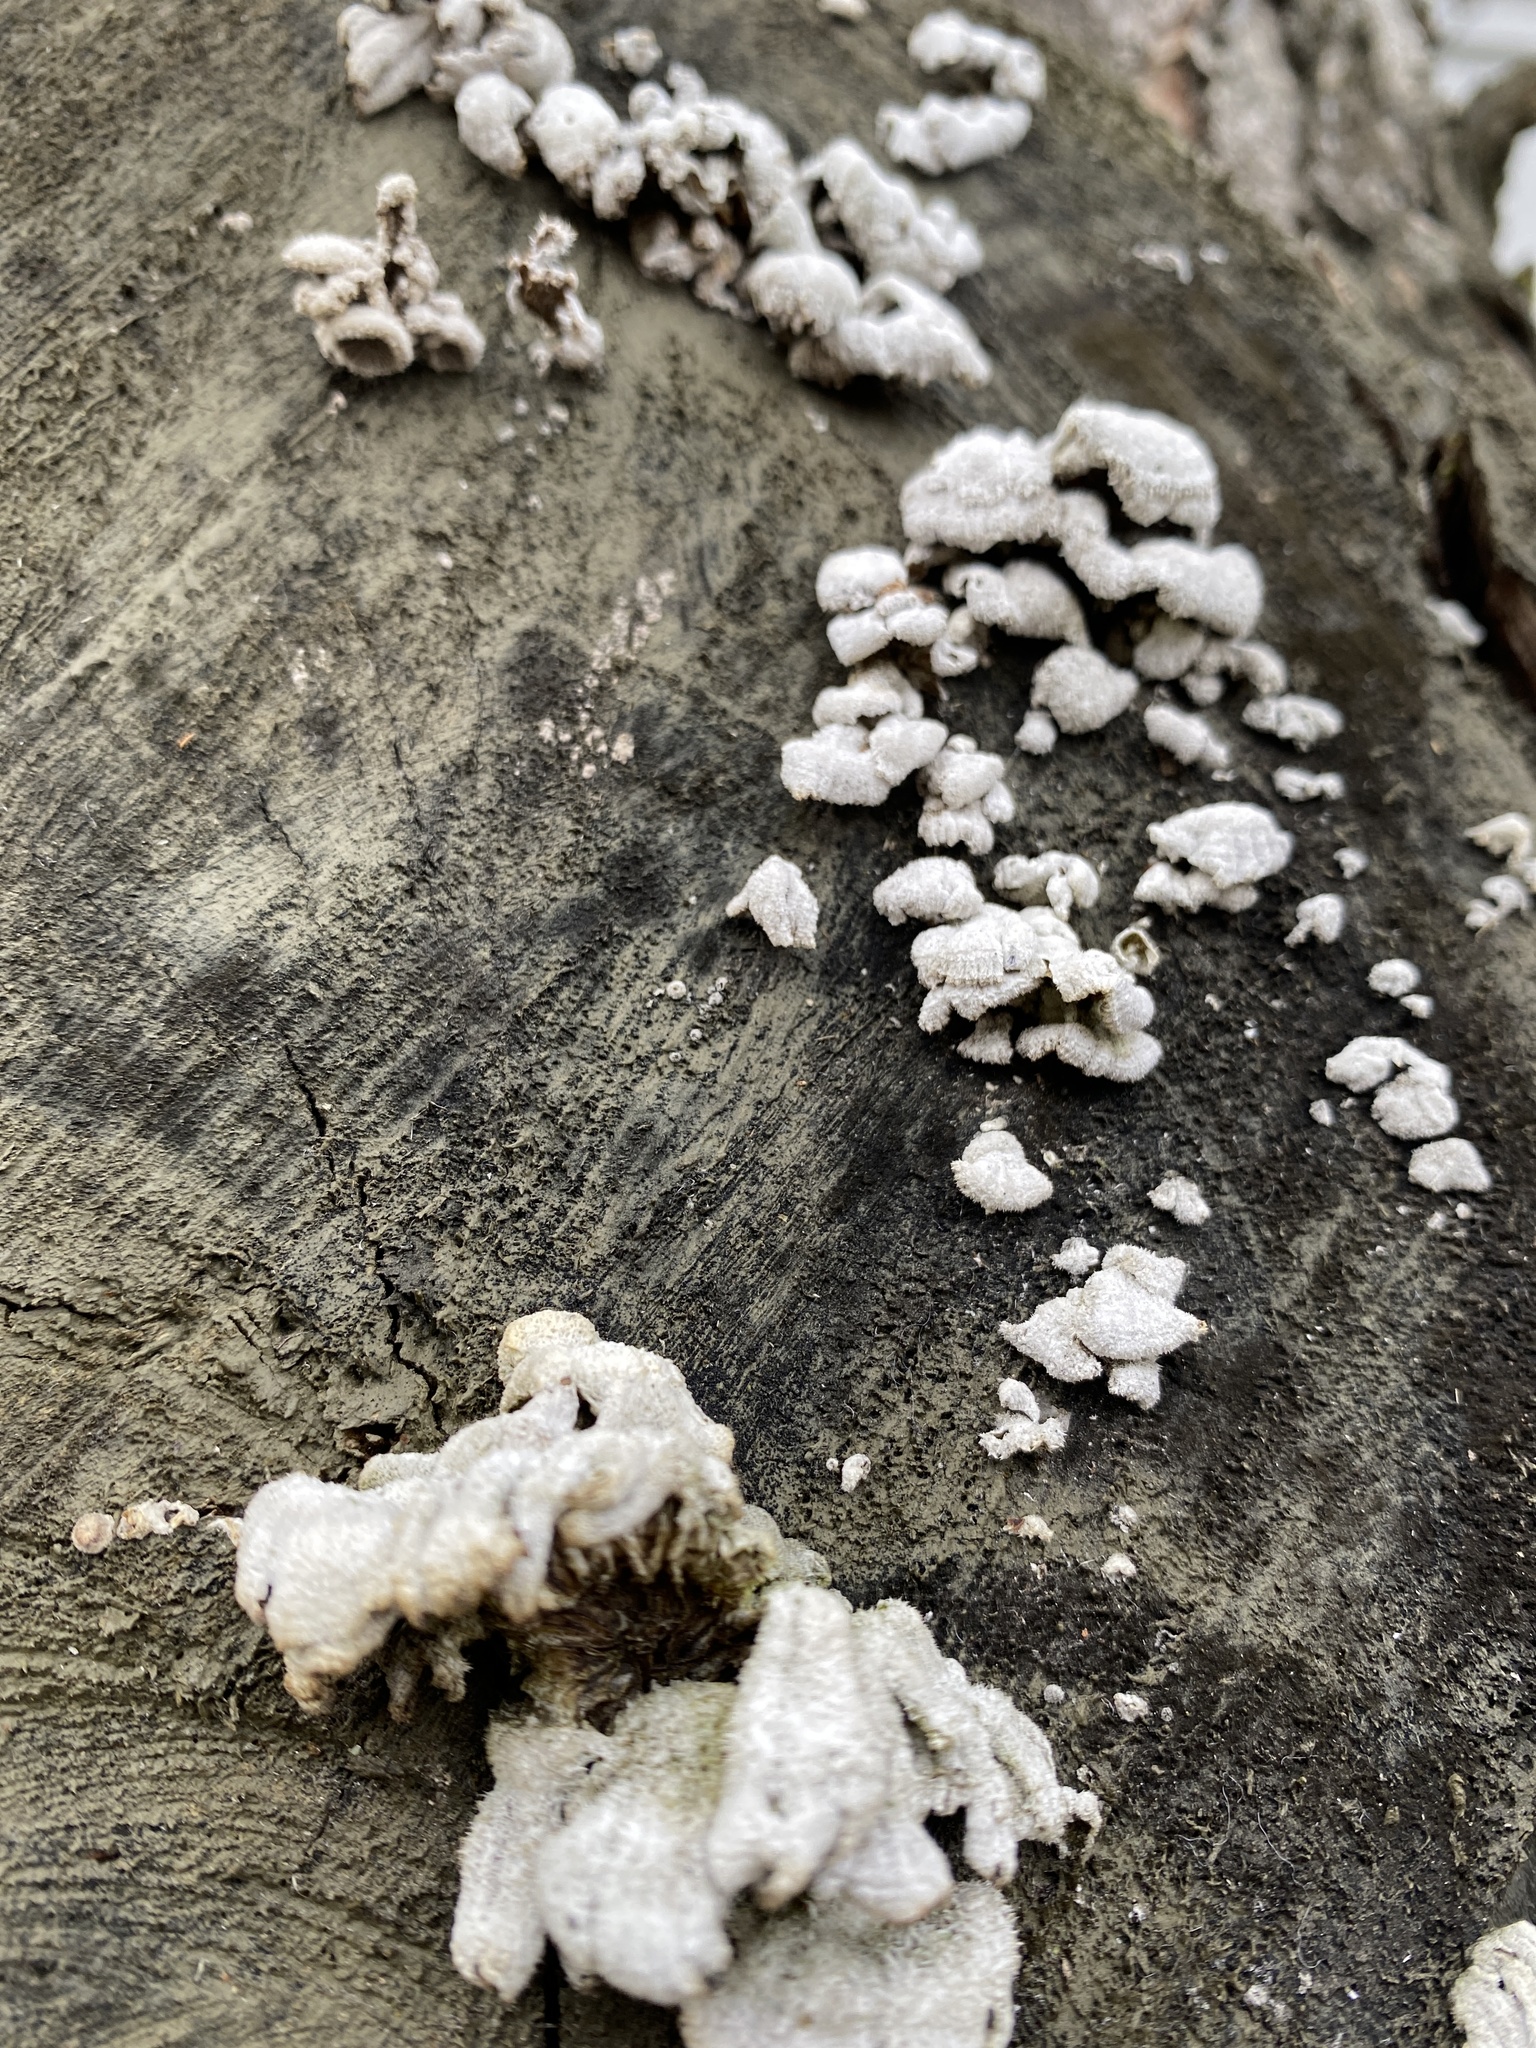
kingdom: Fungi
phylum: Basidiomycota
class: Agaricomycetes
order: Agaricales
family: Schizophyllaceae
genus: Schizophyllum
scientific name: Schizophyllum commune
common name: Common porecrust
